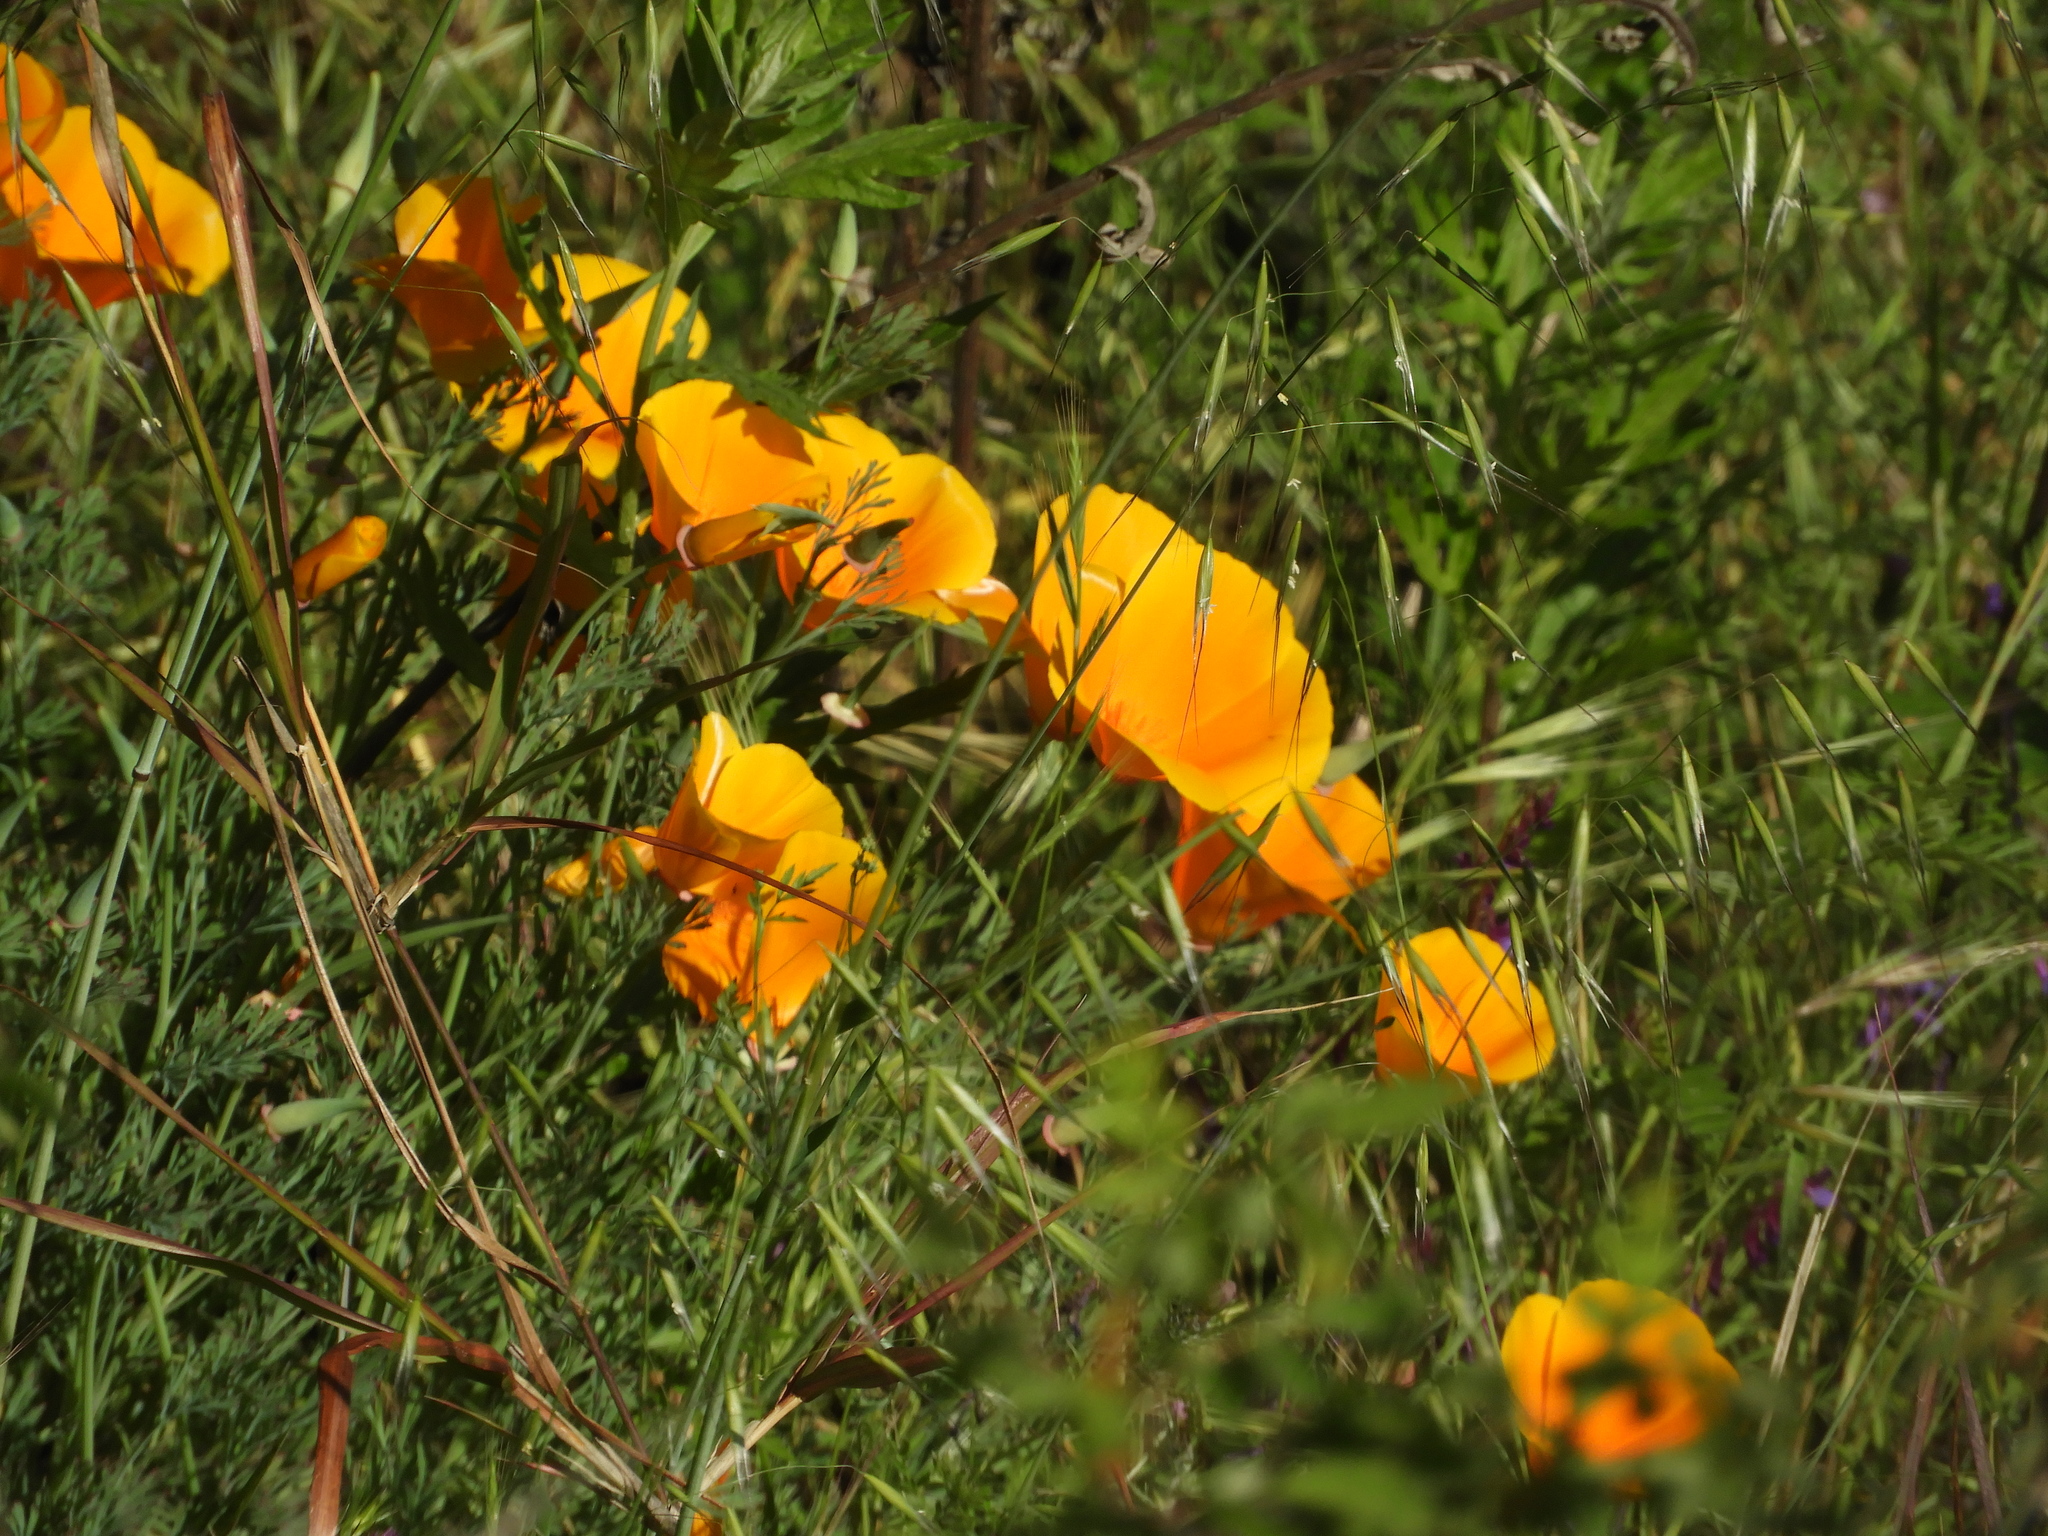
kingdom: Plantae
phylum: Tracheophyta
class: Magnoliopsida
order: Ranunculales
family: Papaveraceae
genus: Eschscholzia
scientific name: Eschscholzia californica
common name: California poppy
